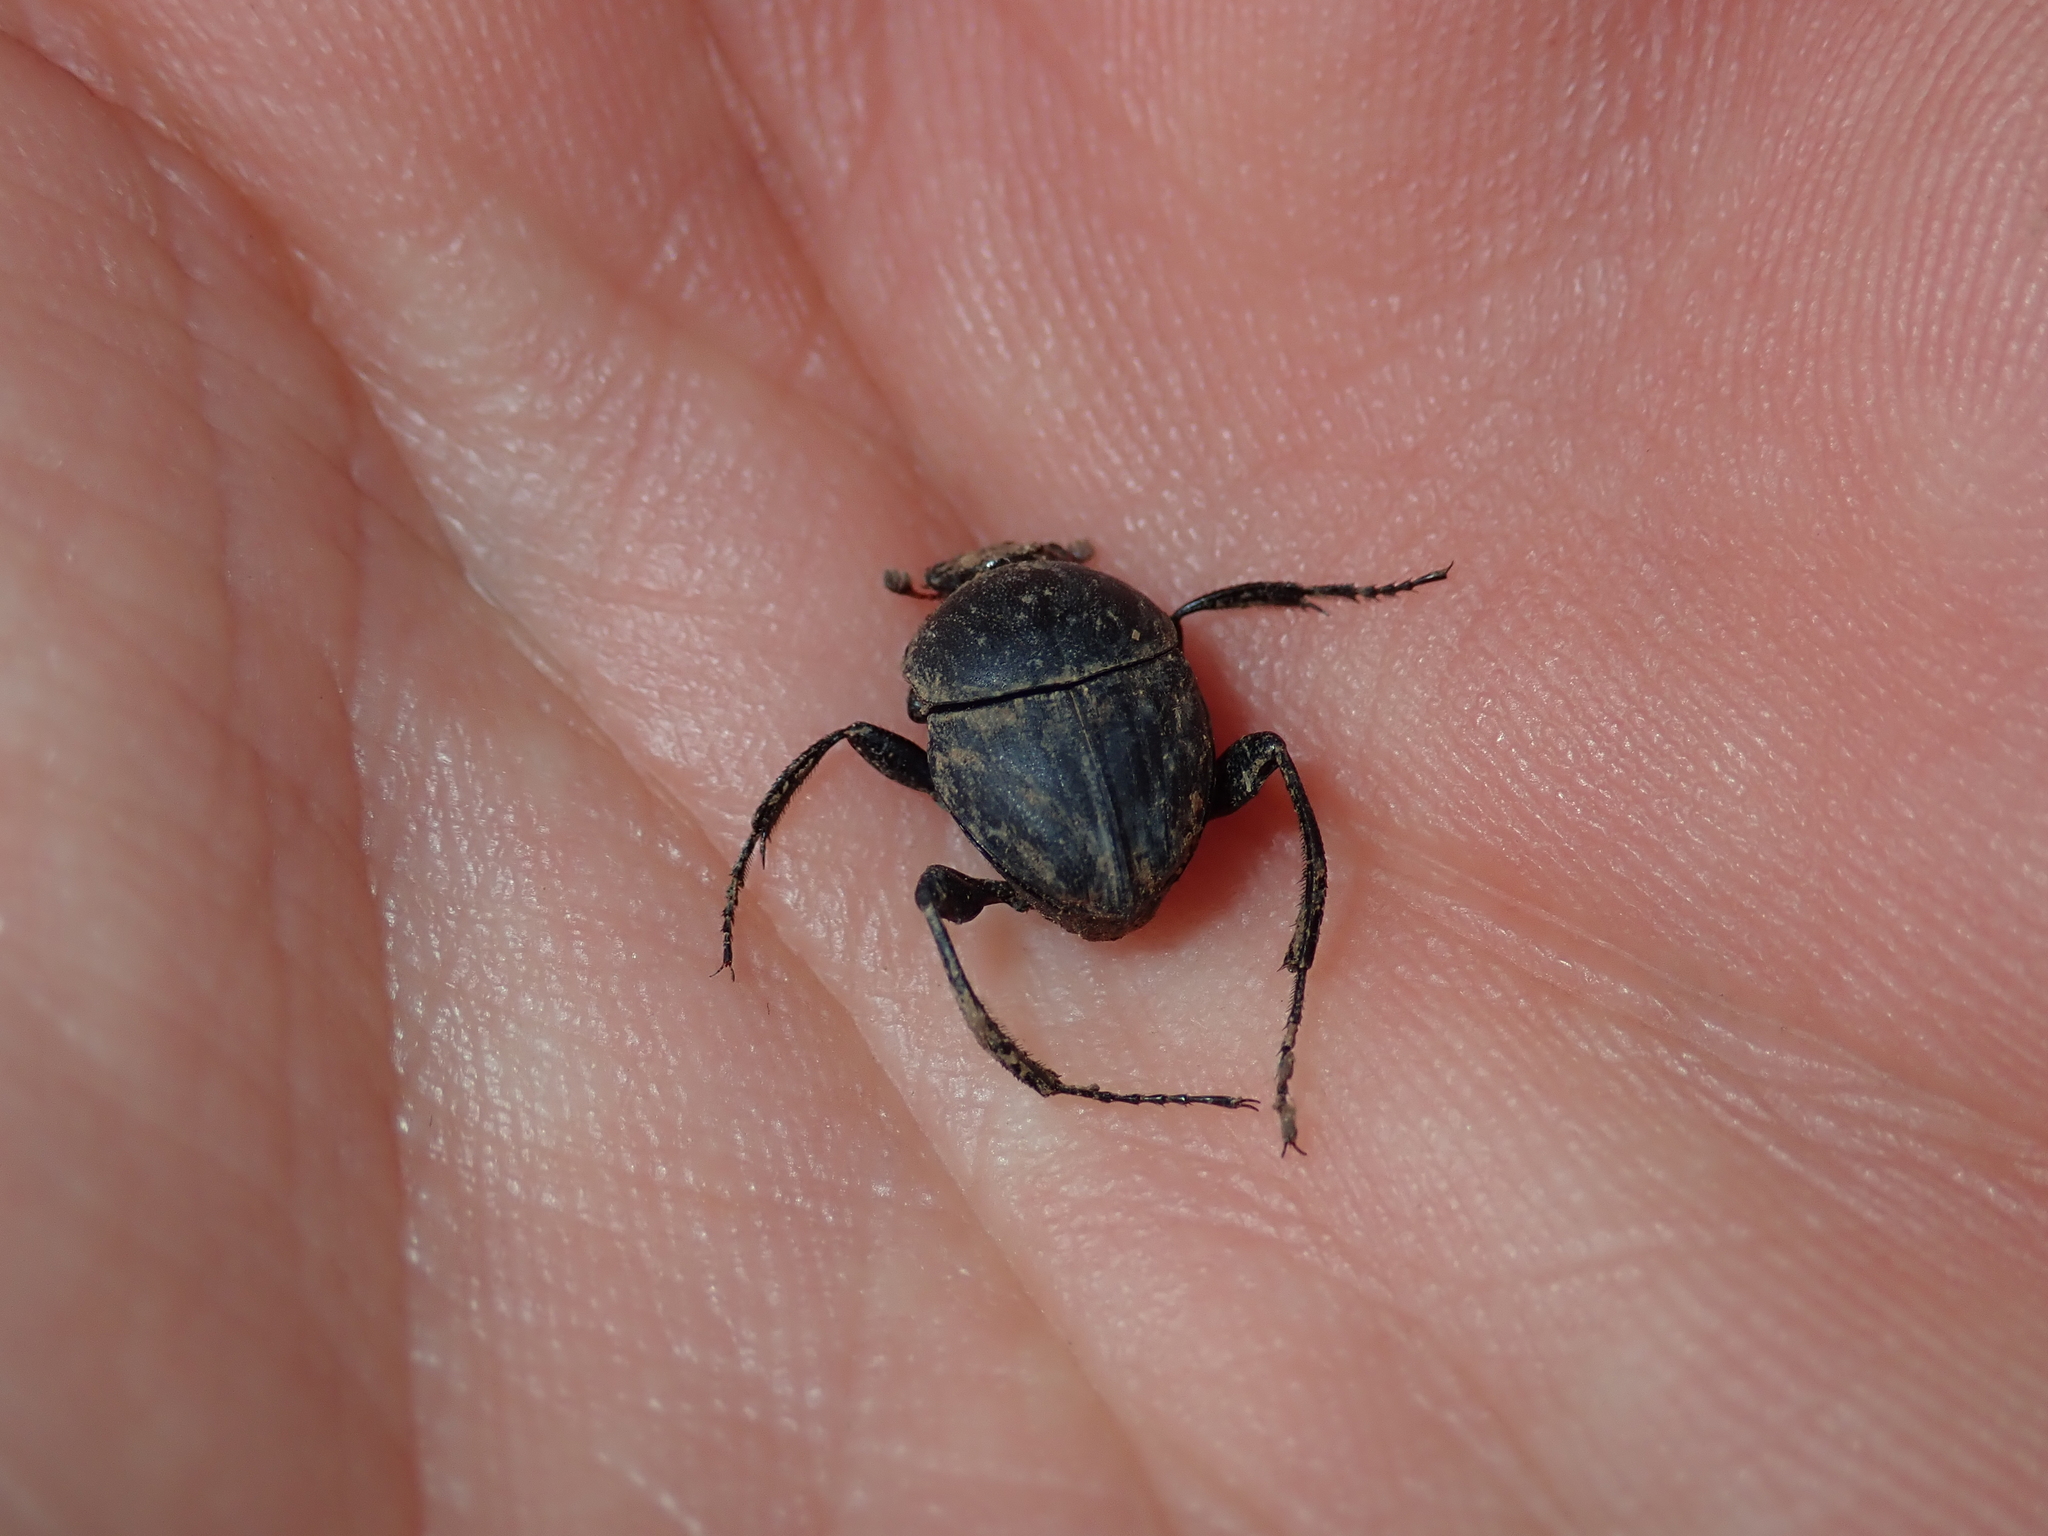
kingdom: Animalia
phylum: Arthropoda
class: Insecta
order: Coleoptera
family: Scarabaeidae
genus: Sisyphus
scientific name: Sisyphus schaefferi
